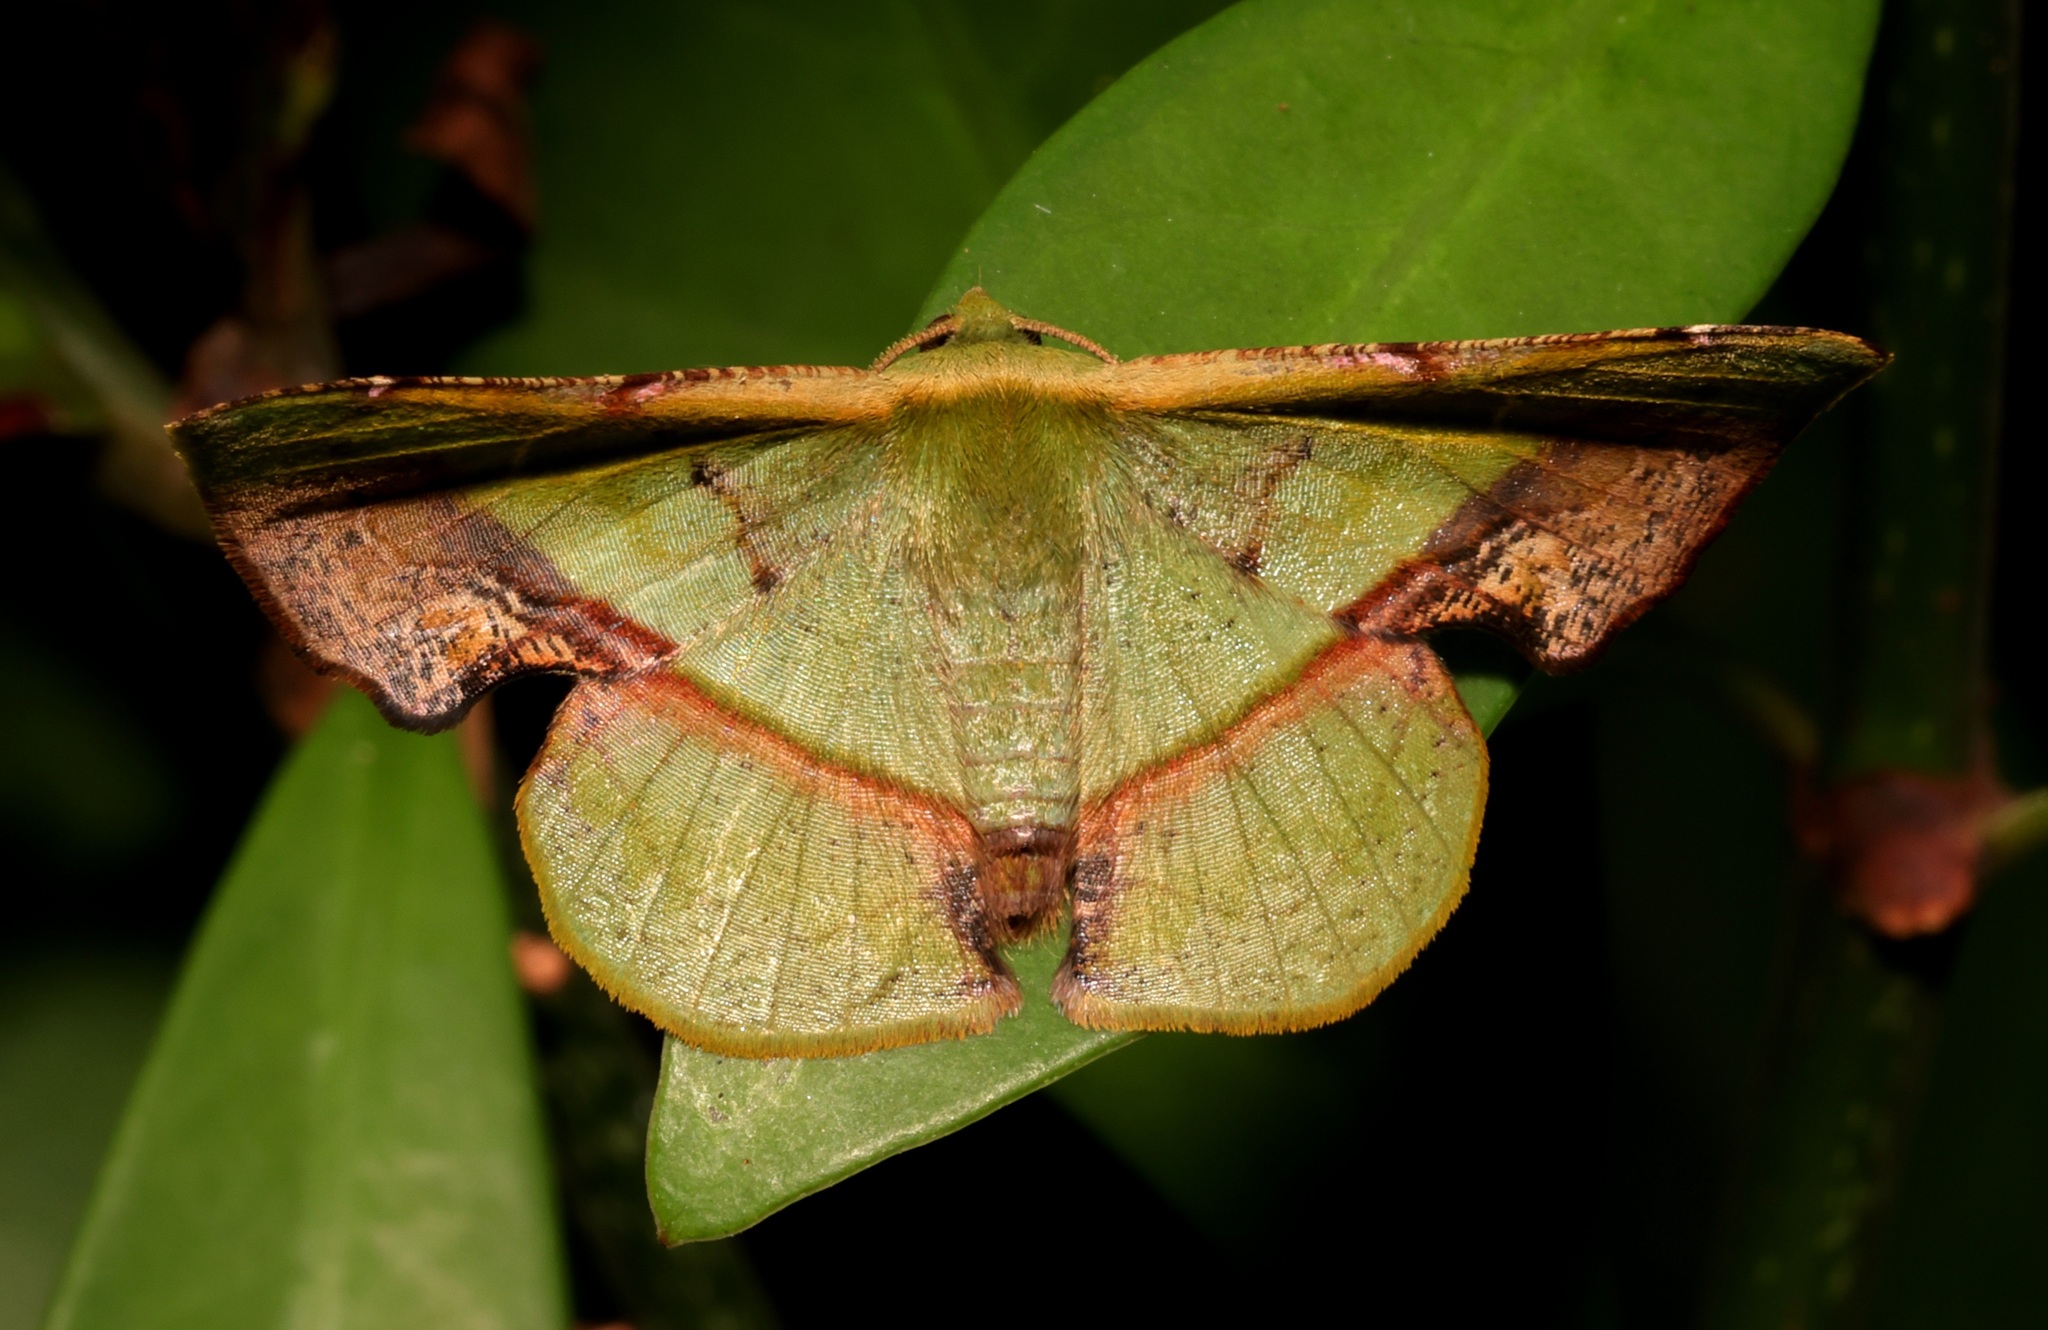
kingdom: Animalia
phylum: Arthropoda
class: Insecta
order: Lepidoptera
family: Geometridae
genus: Fascellina
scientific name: Fascellina plagiata
